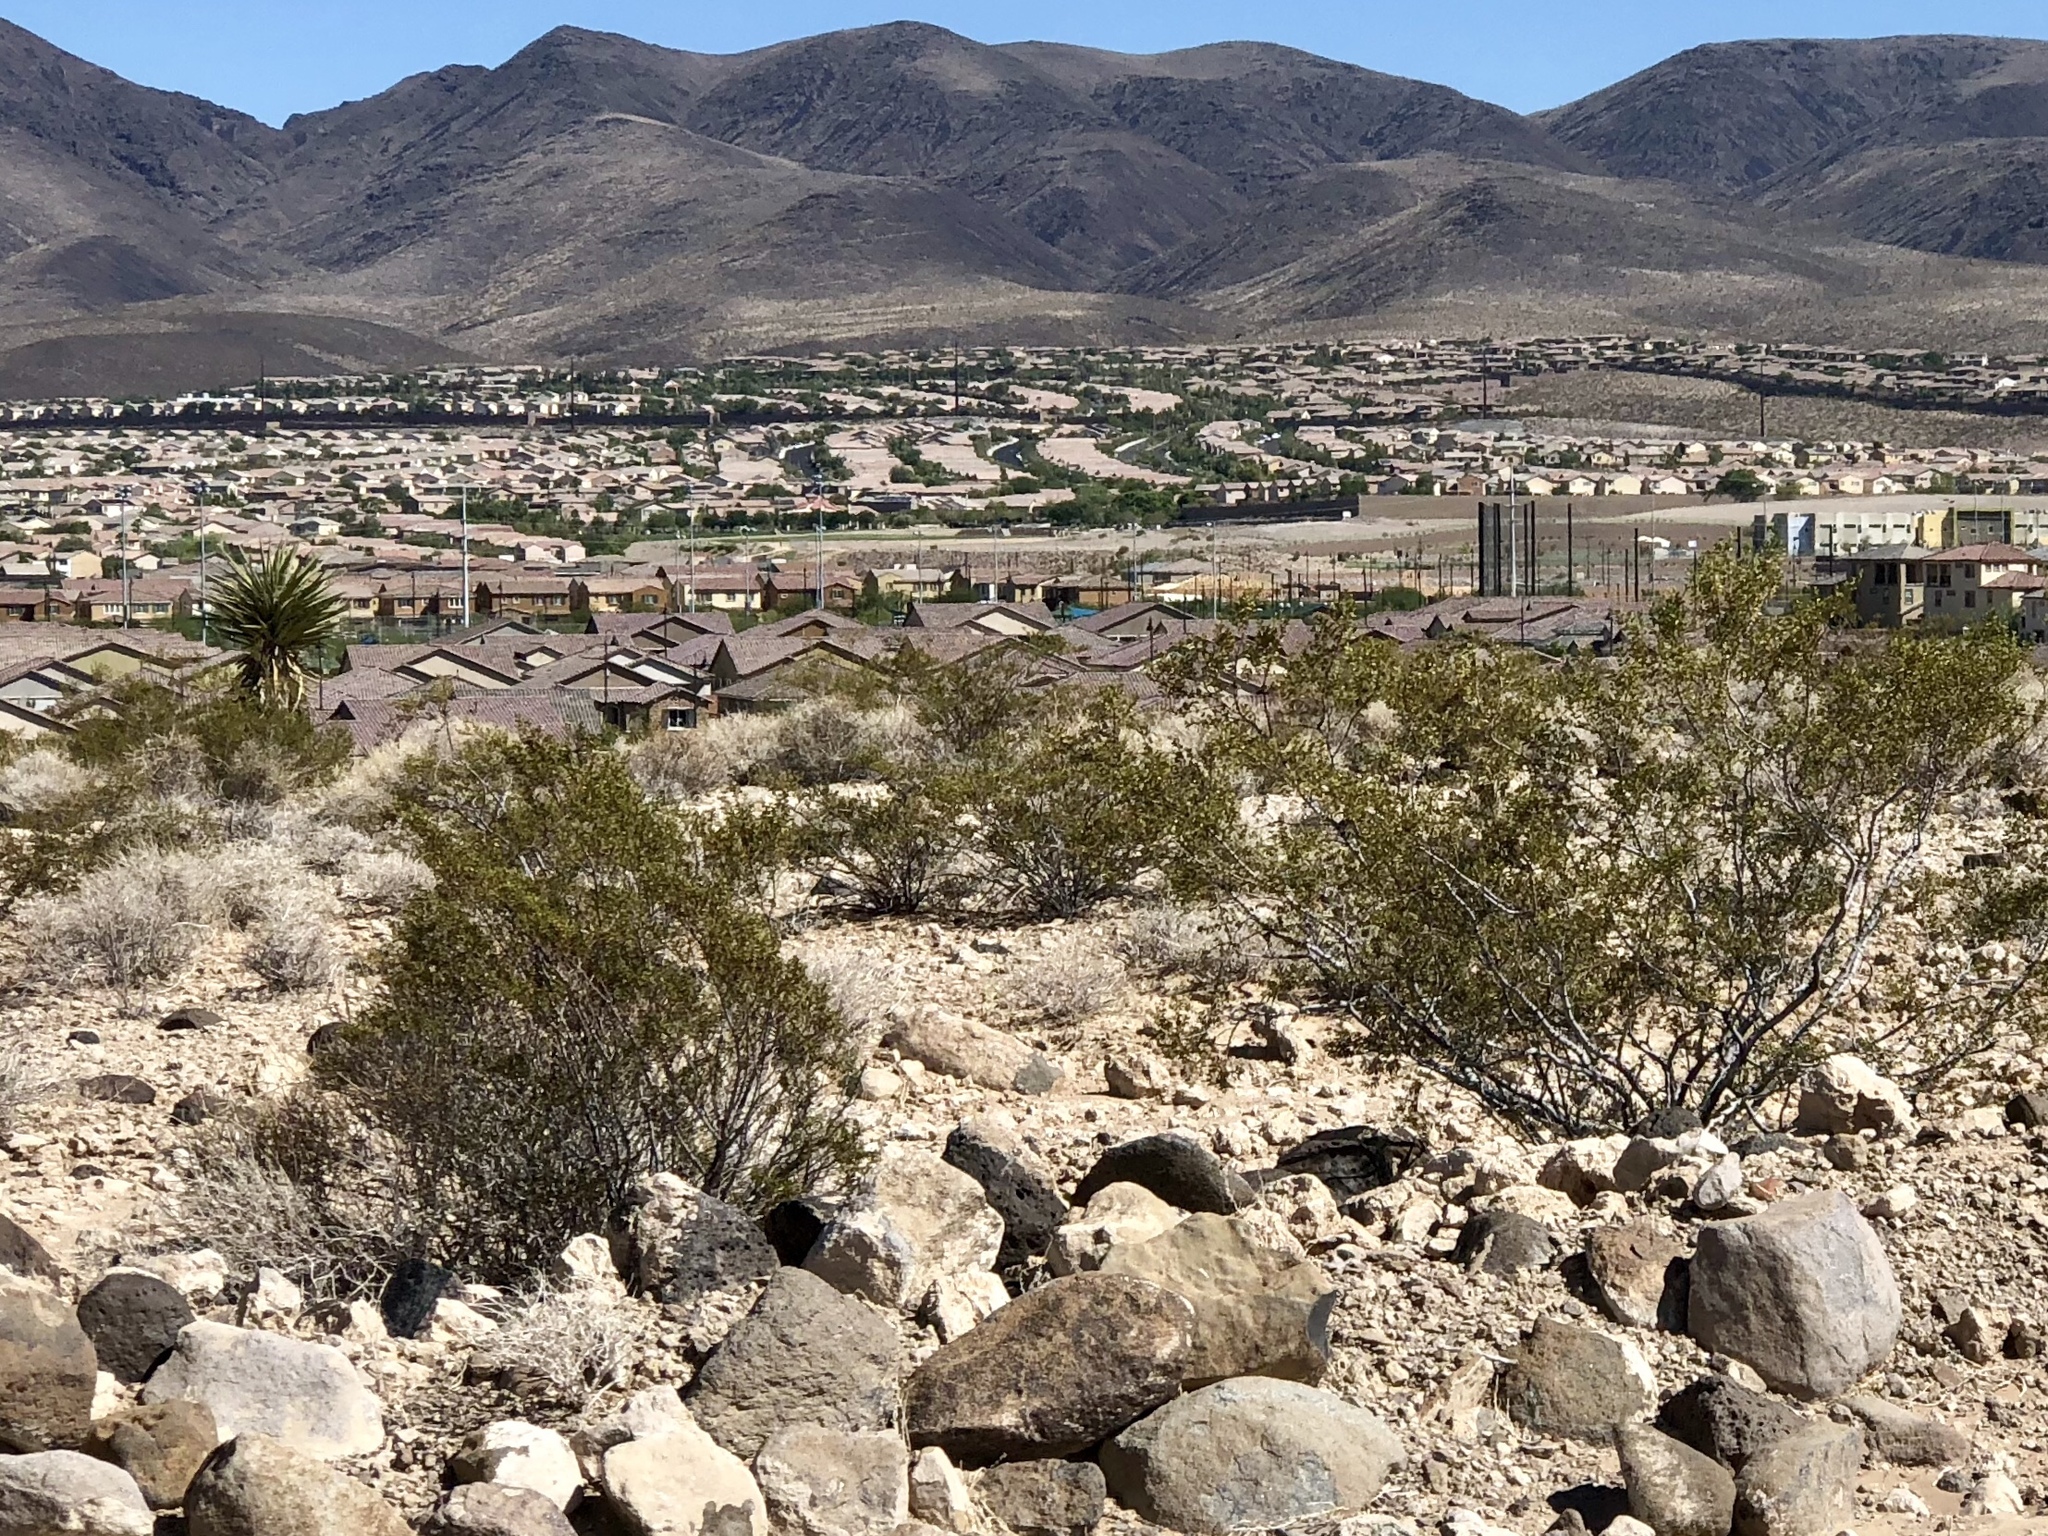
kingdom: Plantae
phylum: Tracheophyta
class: Magnoliopsida
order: Zygophyllales
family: Zygophyllaceae
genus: Larrea
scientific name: Larrea tridentata
